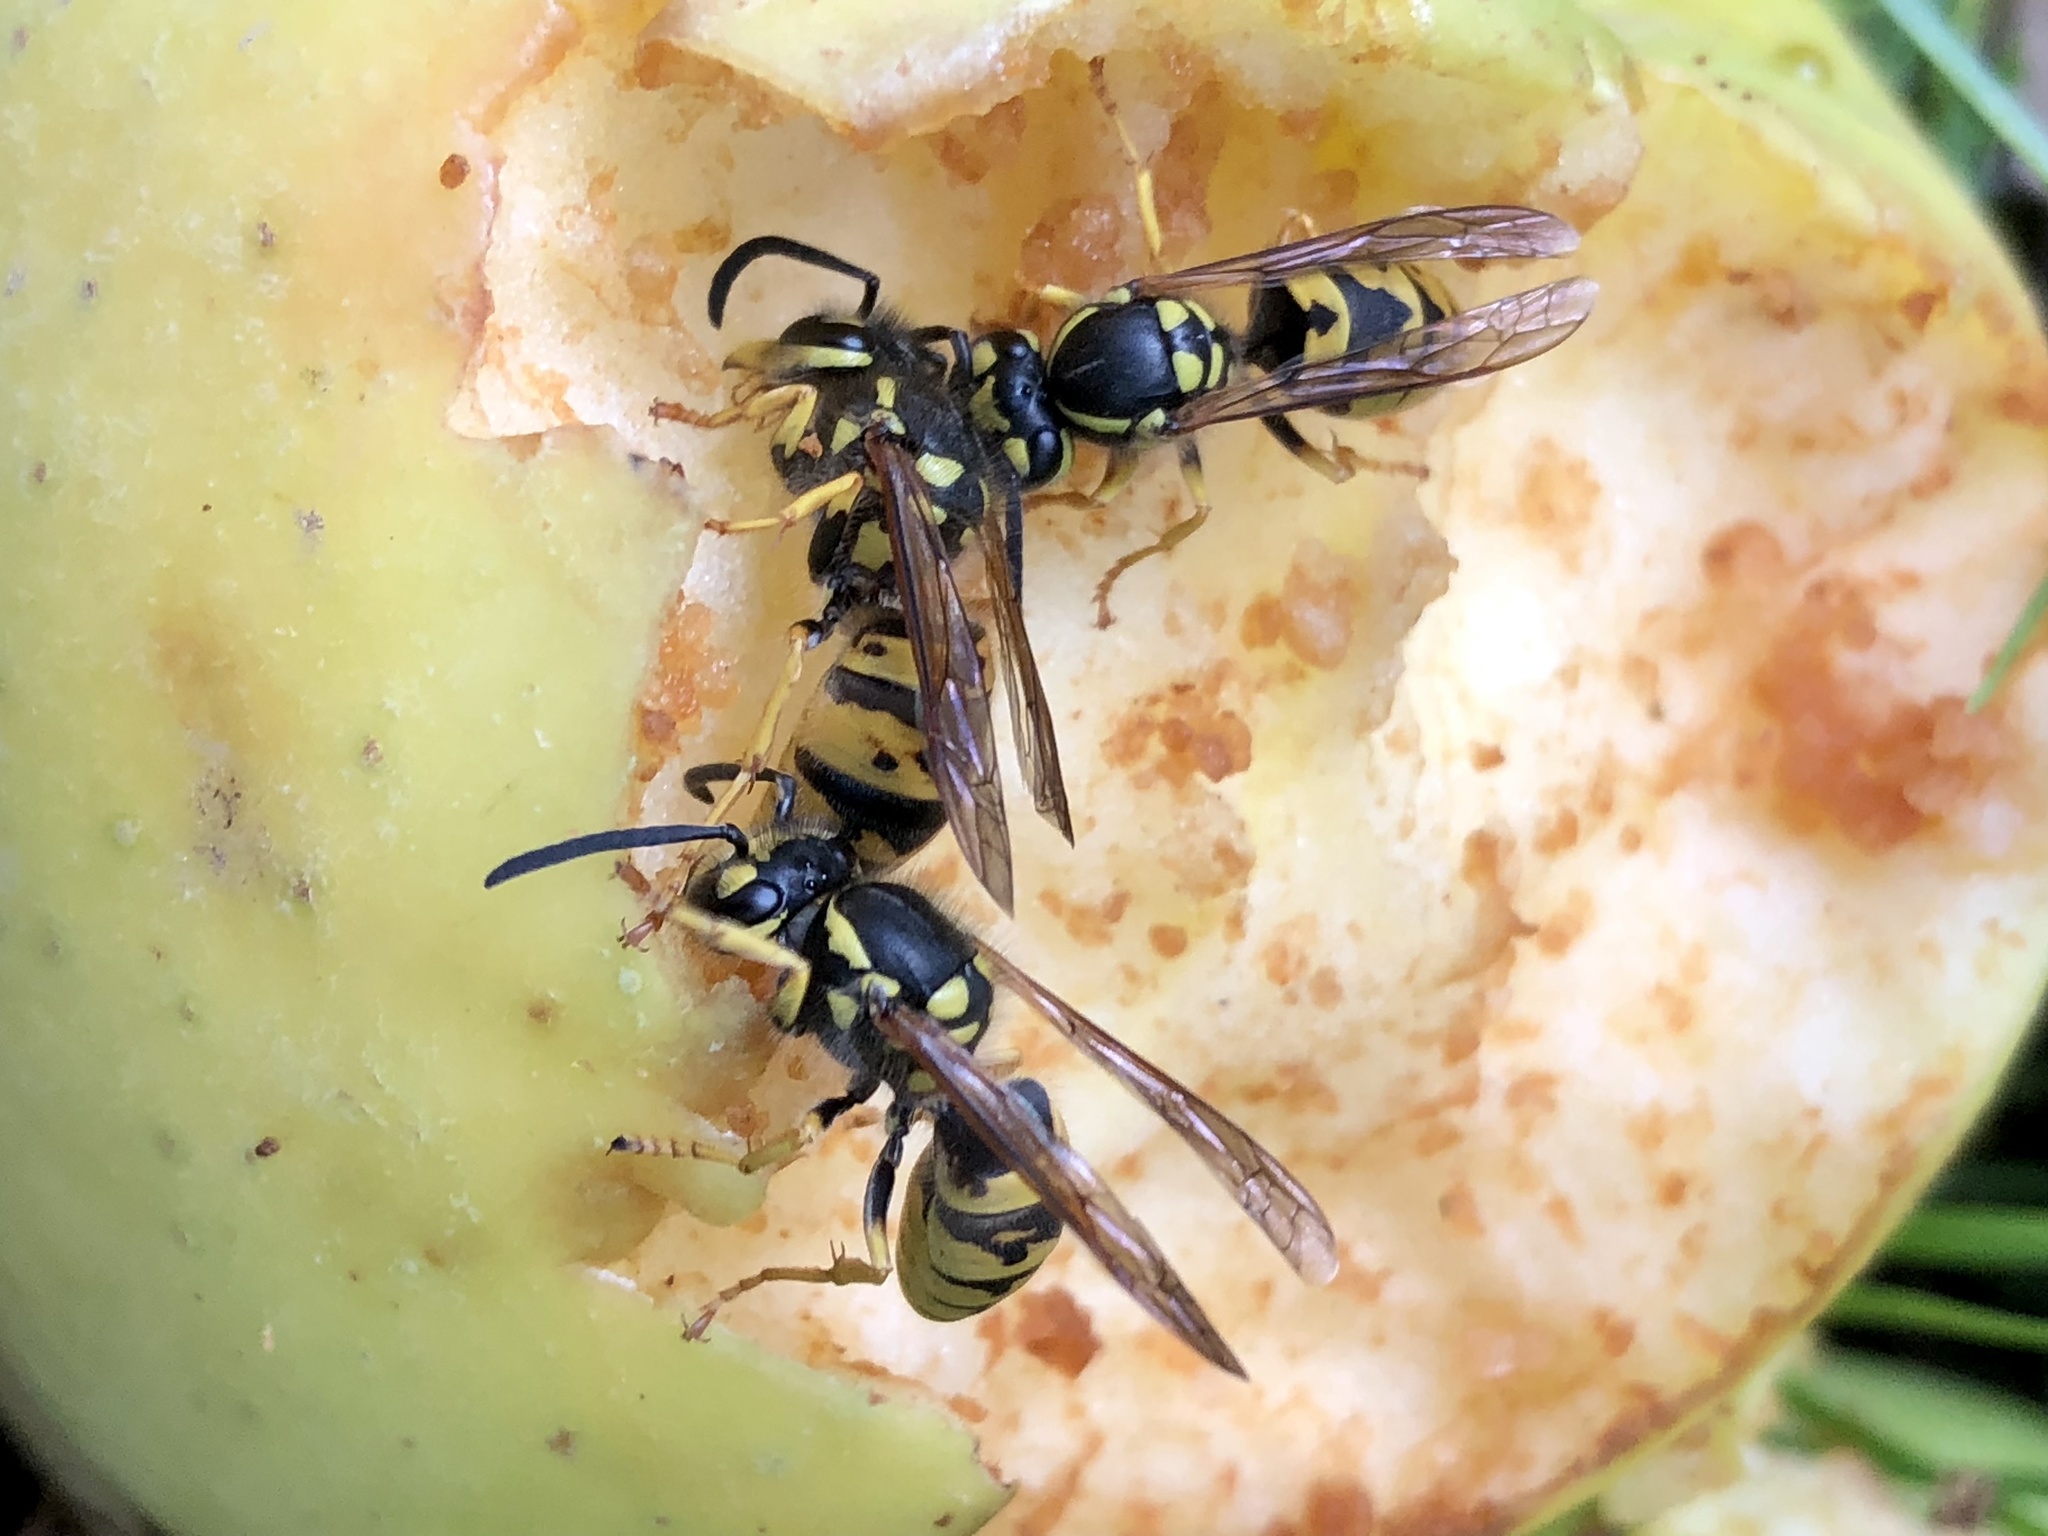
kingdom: Animalia
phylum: Arthropoda
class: Insecta
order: Hymenoptera
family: Vespidae
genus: Vespula
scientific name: Vespula germanica
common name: German wasp
